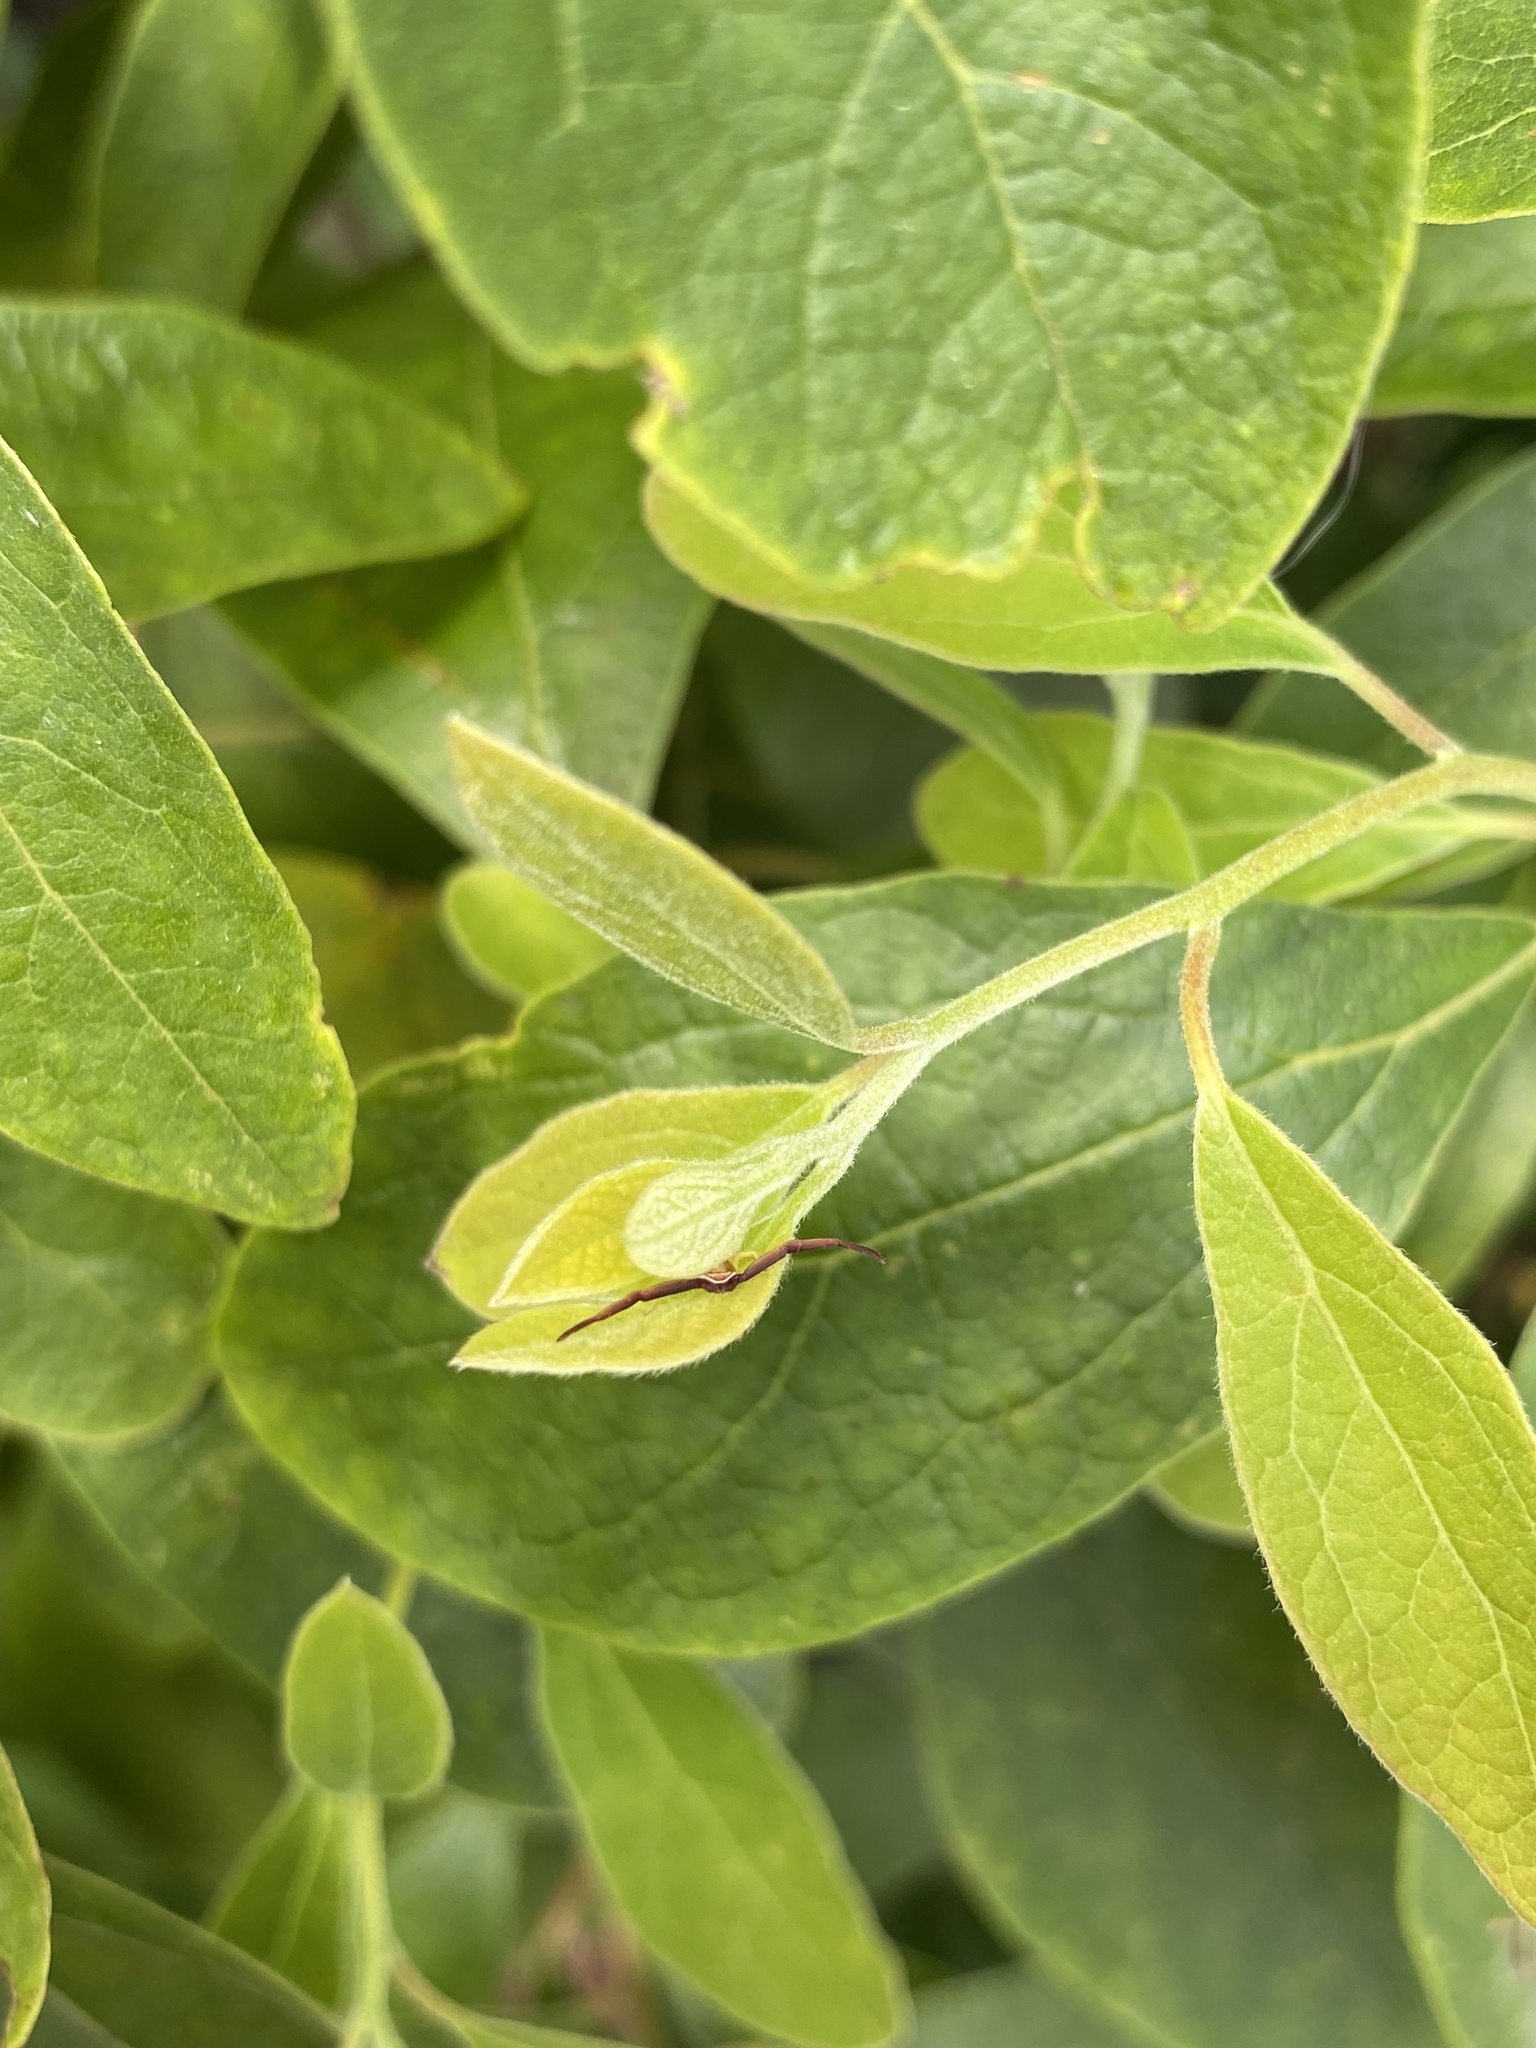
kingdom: Animalia
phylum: Arthropoda
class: Arachnida
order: Araneae
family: Thomisidae
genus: Misumenoides
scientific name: Misumenoides formosipes
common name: White-banded crab spider
